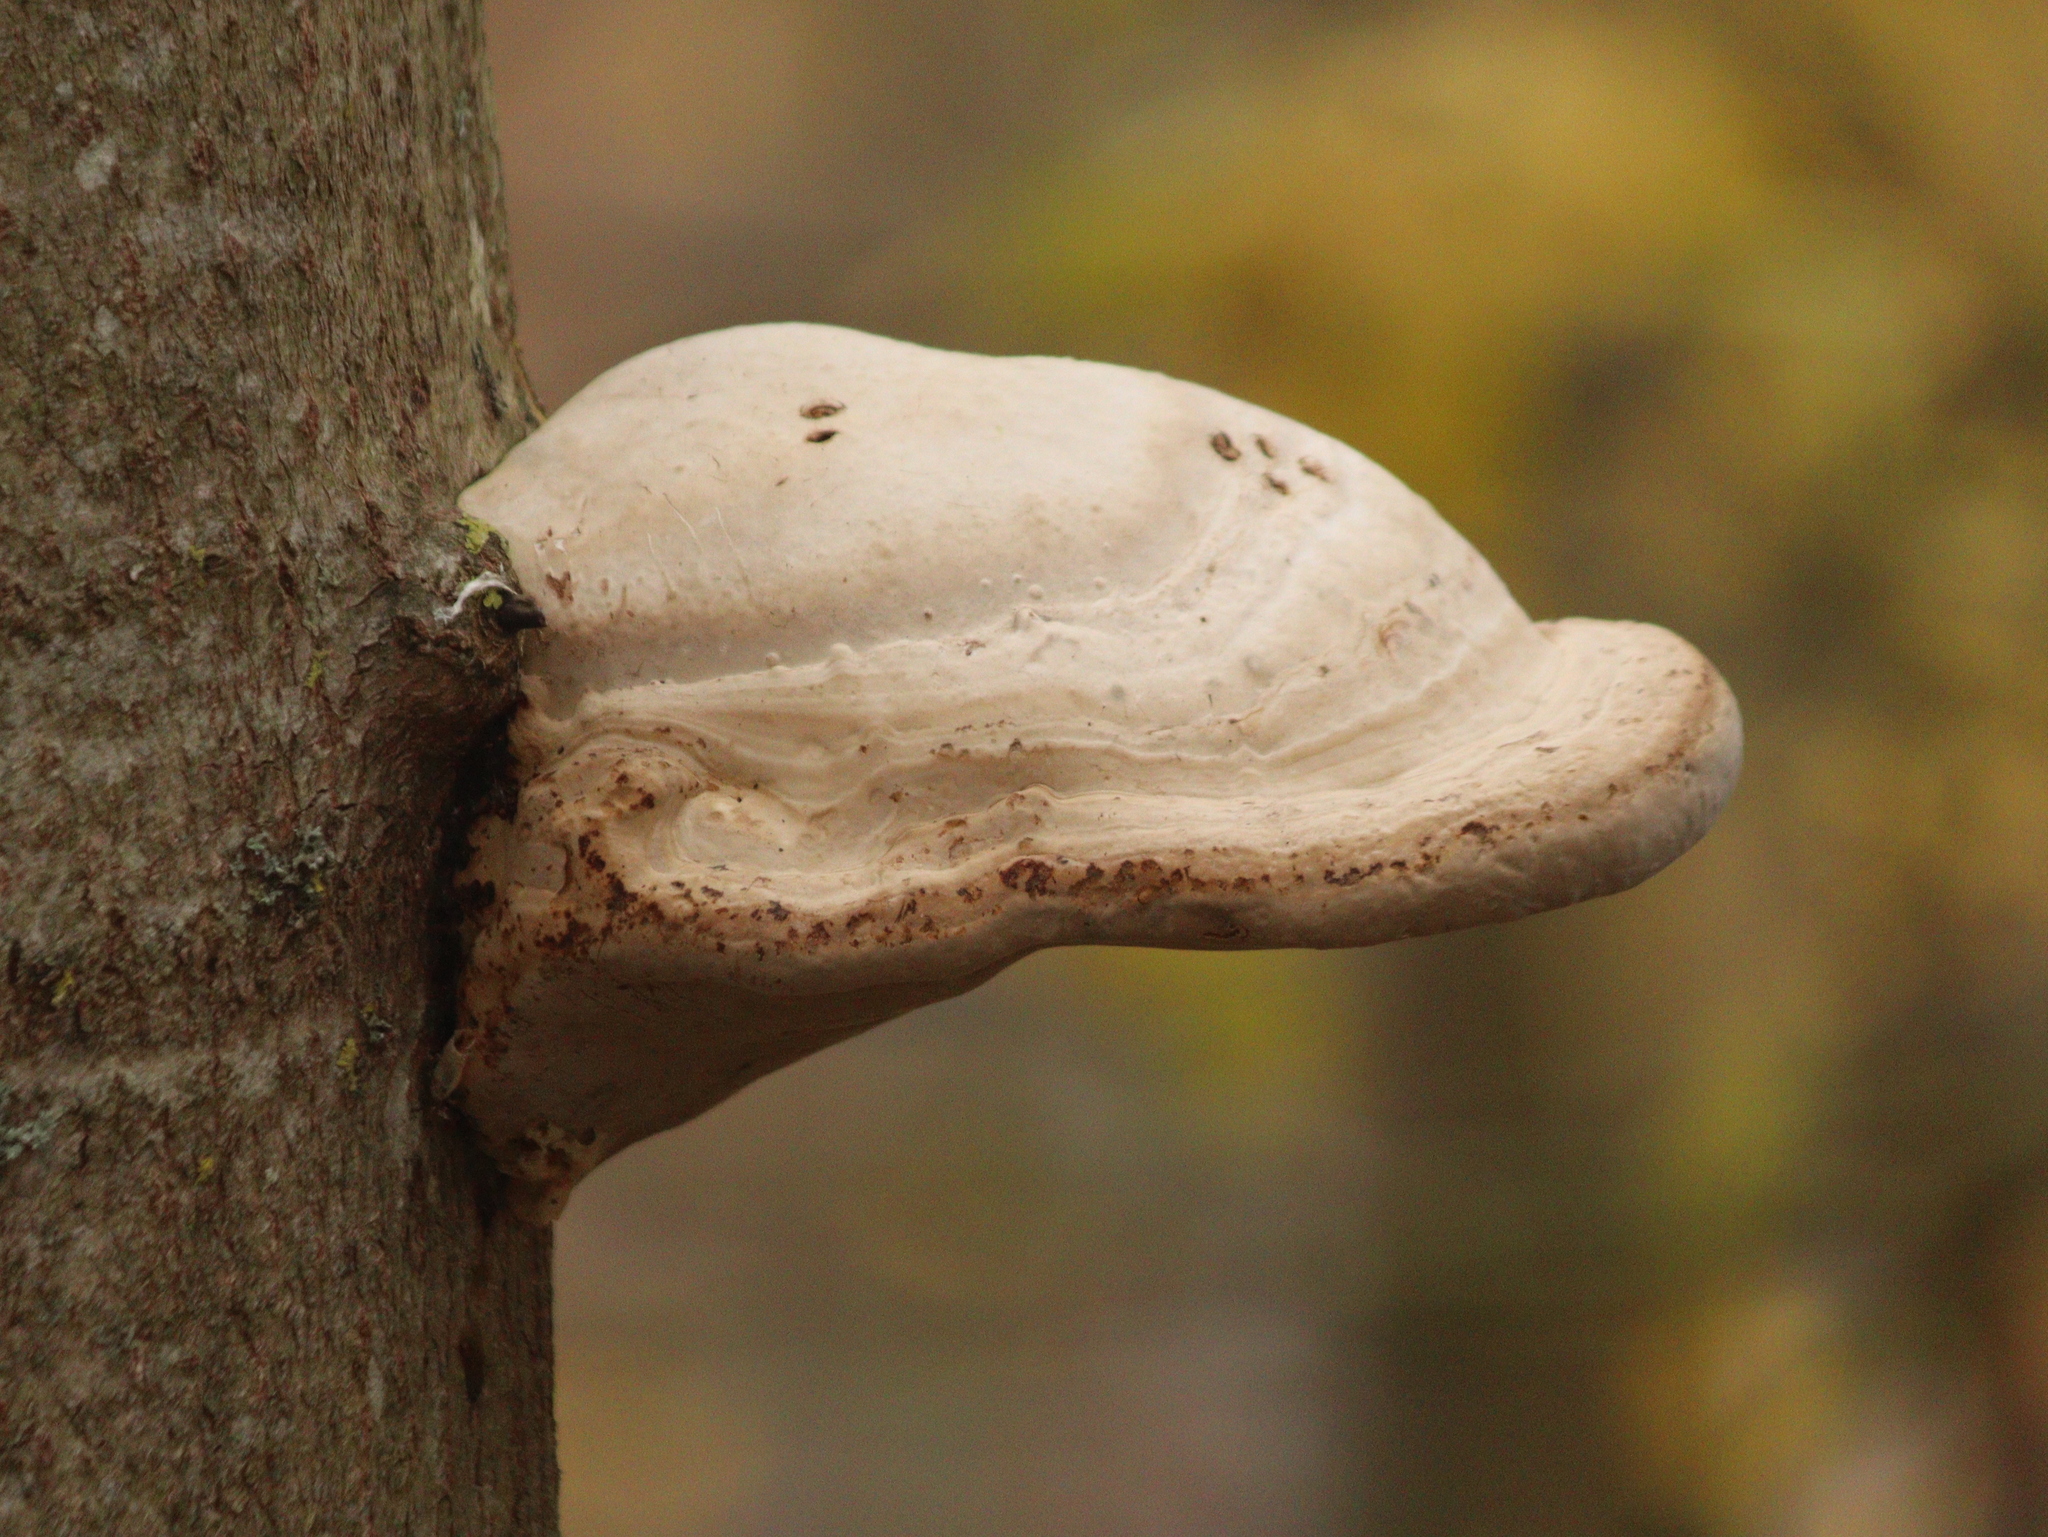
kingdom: Fungi
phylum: Basidiomycota
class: Agaricomycetes
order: Polyporales
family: Polyporaceae
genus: Fomes
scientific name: Fomes fomentarius
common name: Hoof fungus
